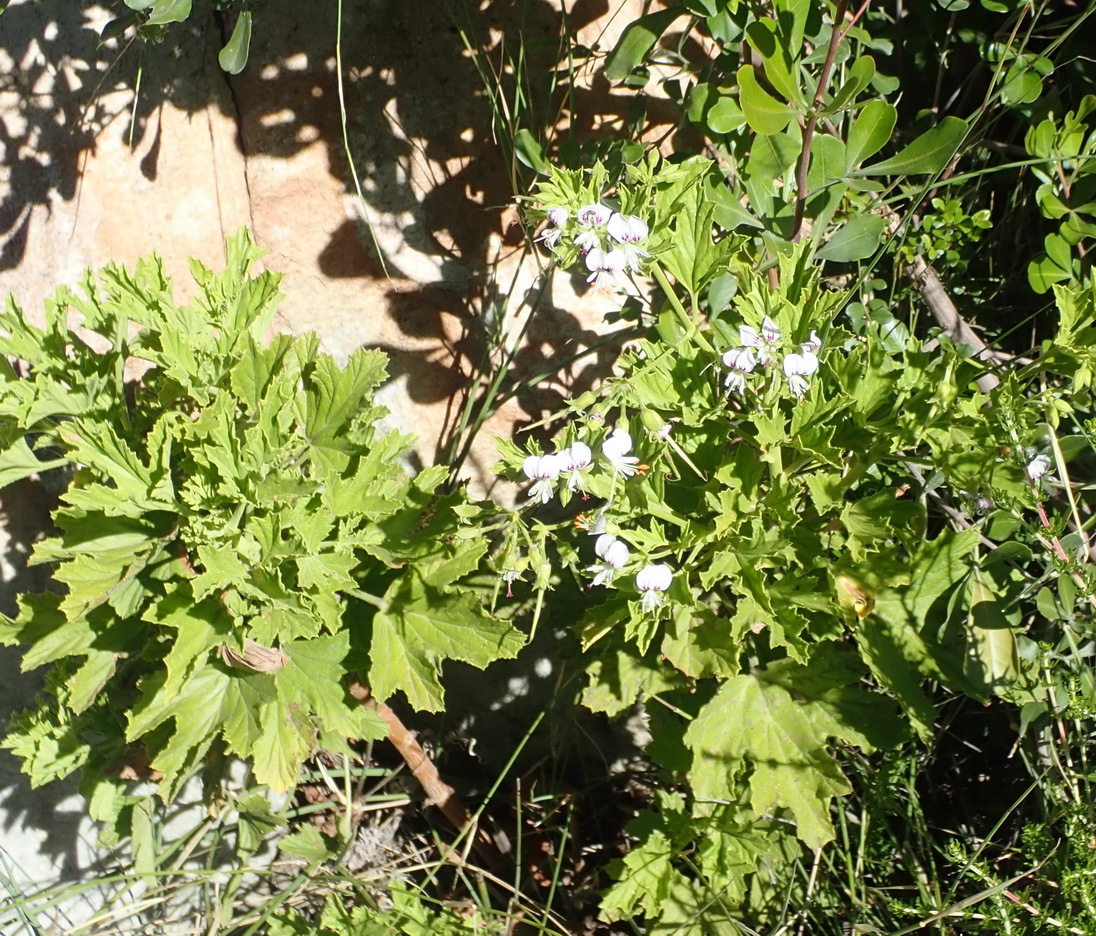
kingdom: Plantae
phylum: Tracheophyta
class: Magnoliopsida
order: Geraniales
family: Geraniaceae
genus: Pelargonium
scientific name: Pelargonium ribifolium
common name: Currant-leaf pelargonium
